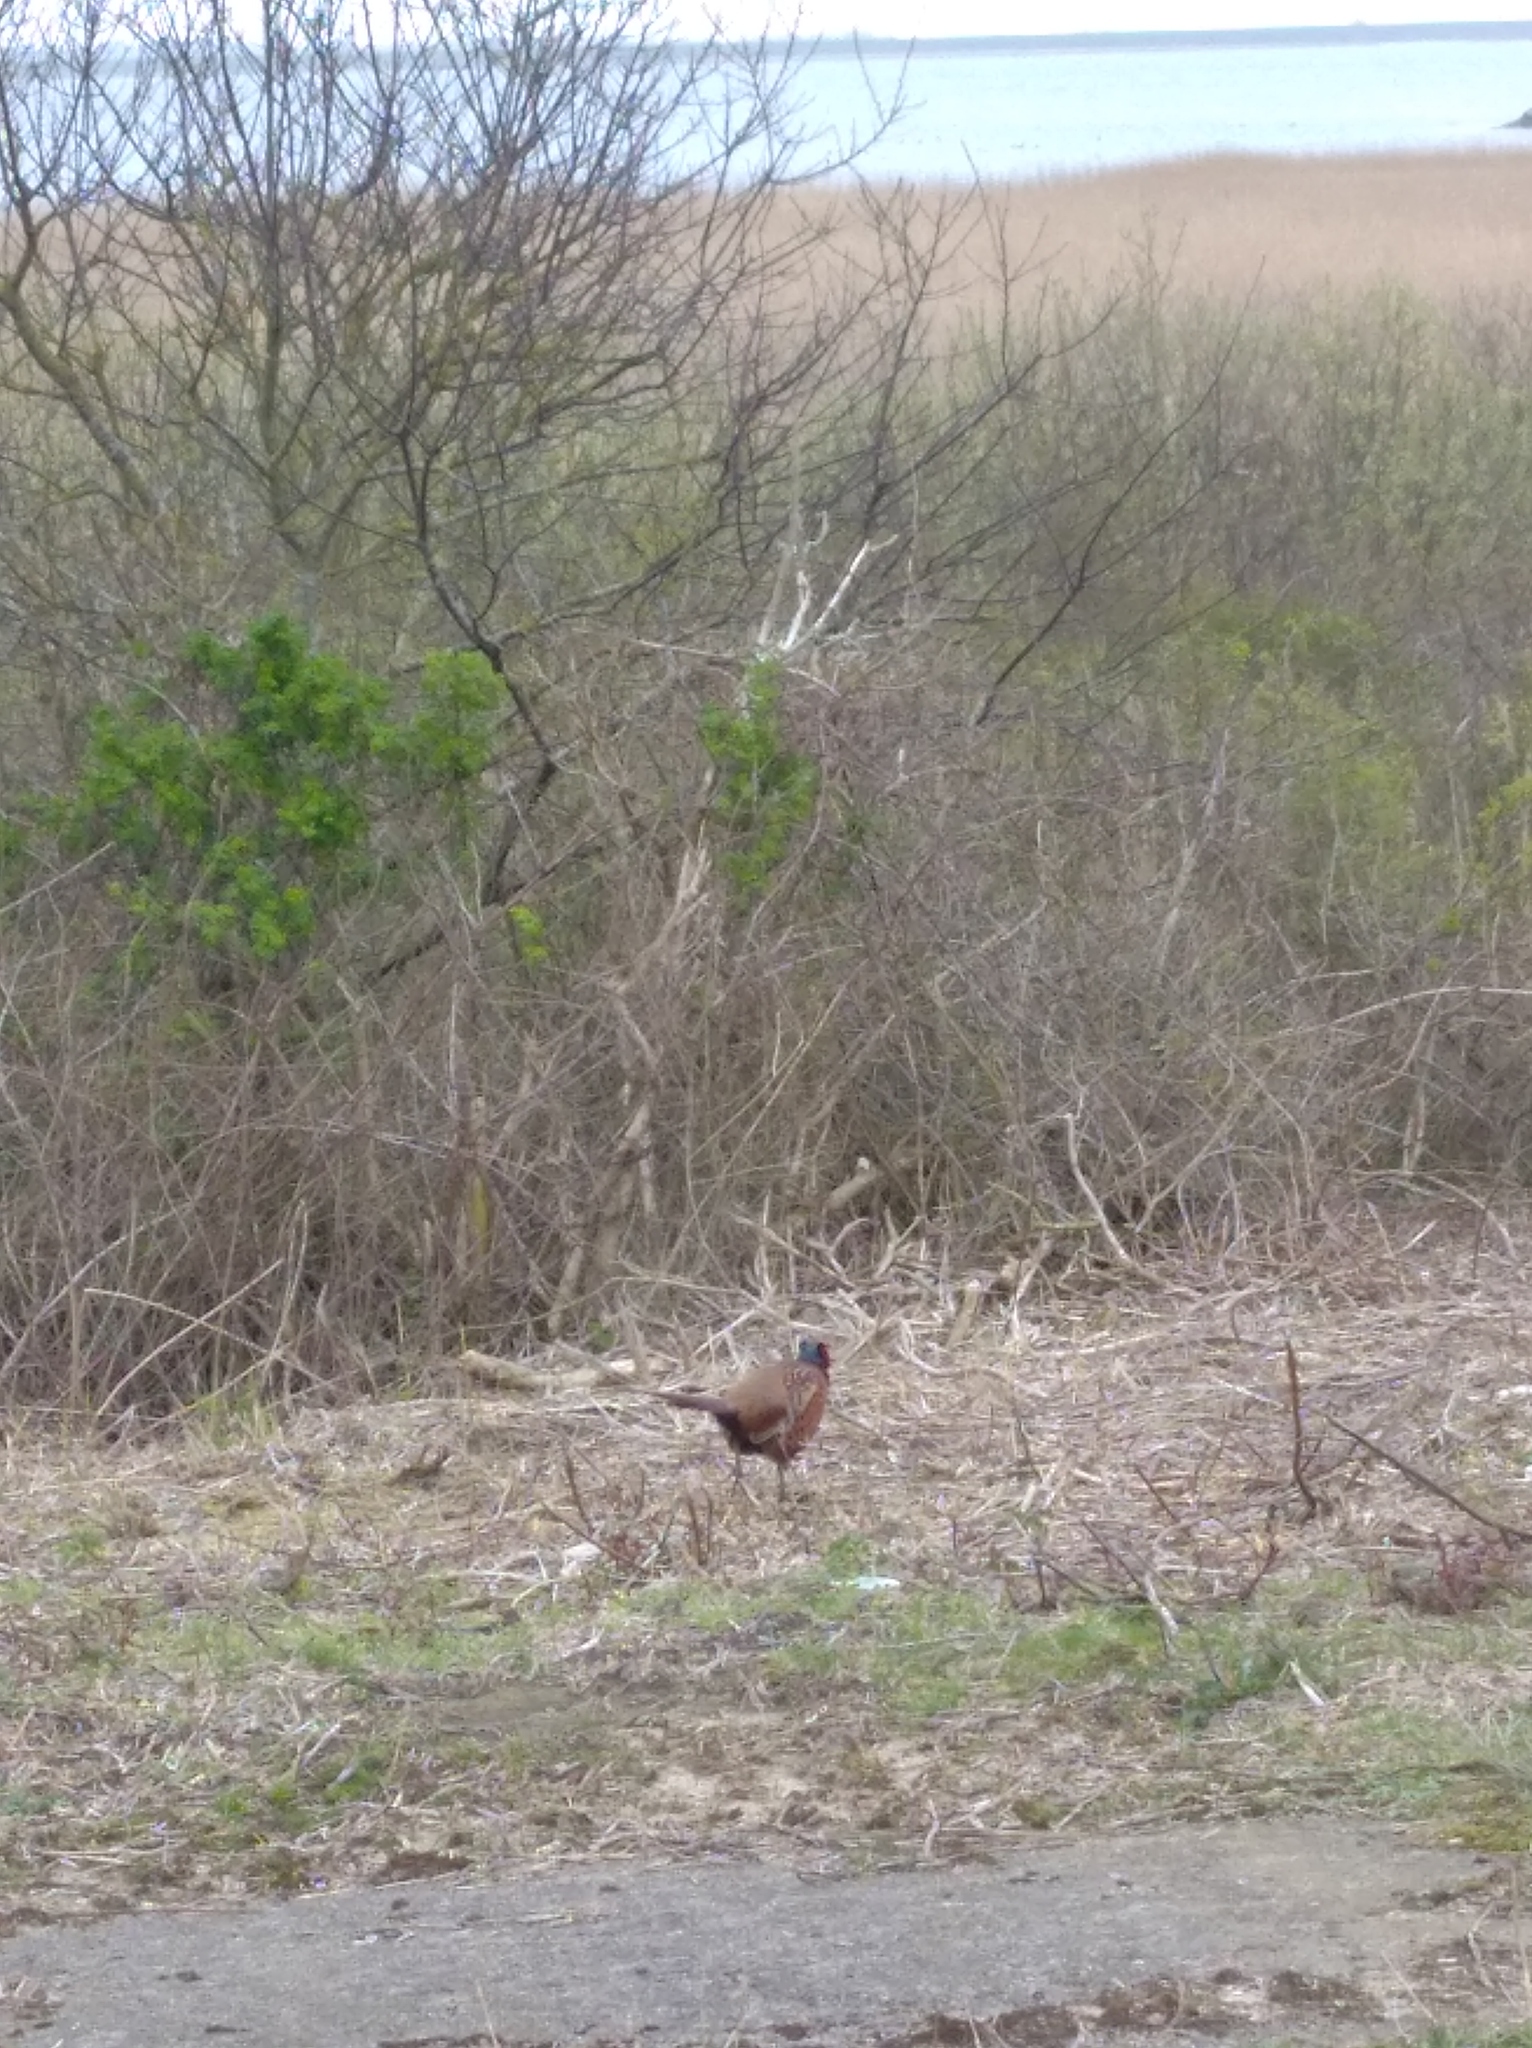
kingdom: Animalia
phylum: Chordata
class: Aves
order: Galliformes
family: Phasianidae
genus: Phasianus
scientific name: Phasianus colchicus
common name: Common pheasant
